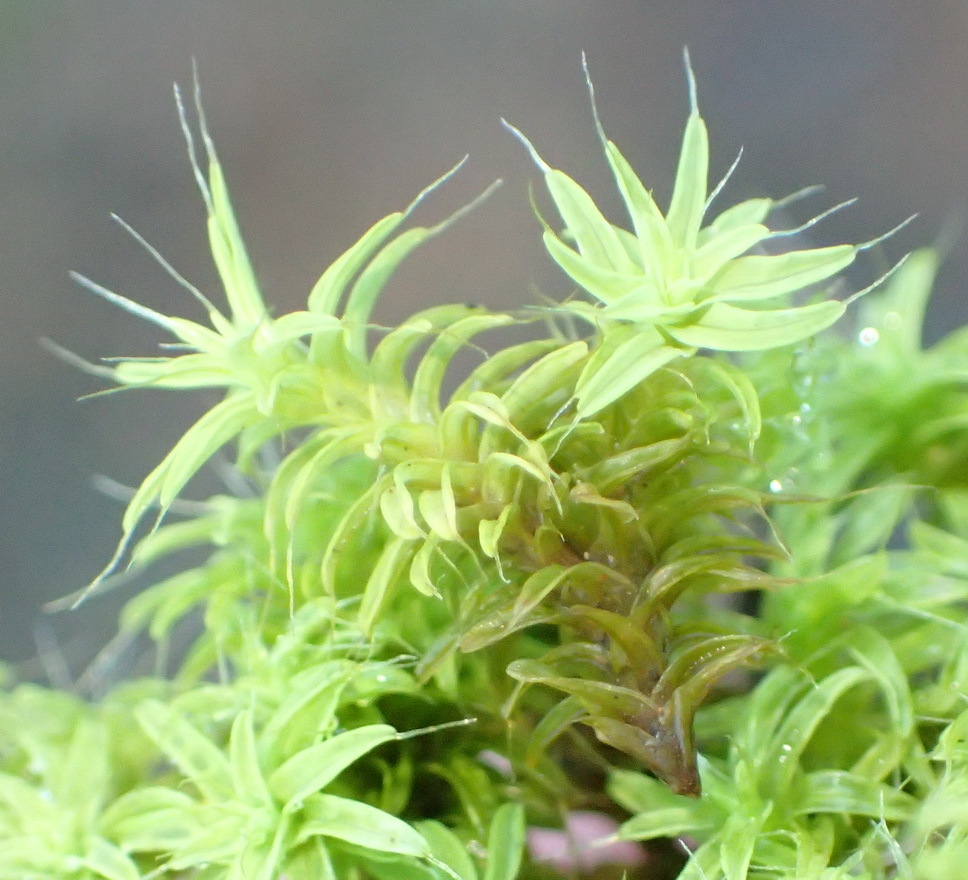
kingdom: Plantae
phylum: Bryophyta
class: Bryopsida
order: Pottiales
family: Pottiaceae
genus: Pseudocrossidium
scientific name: Pseudocrossidium crinitum
